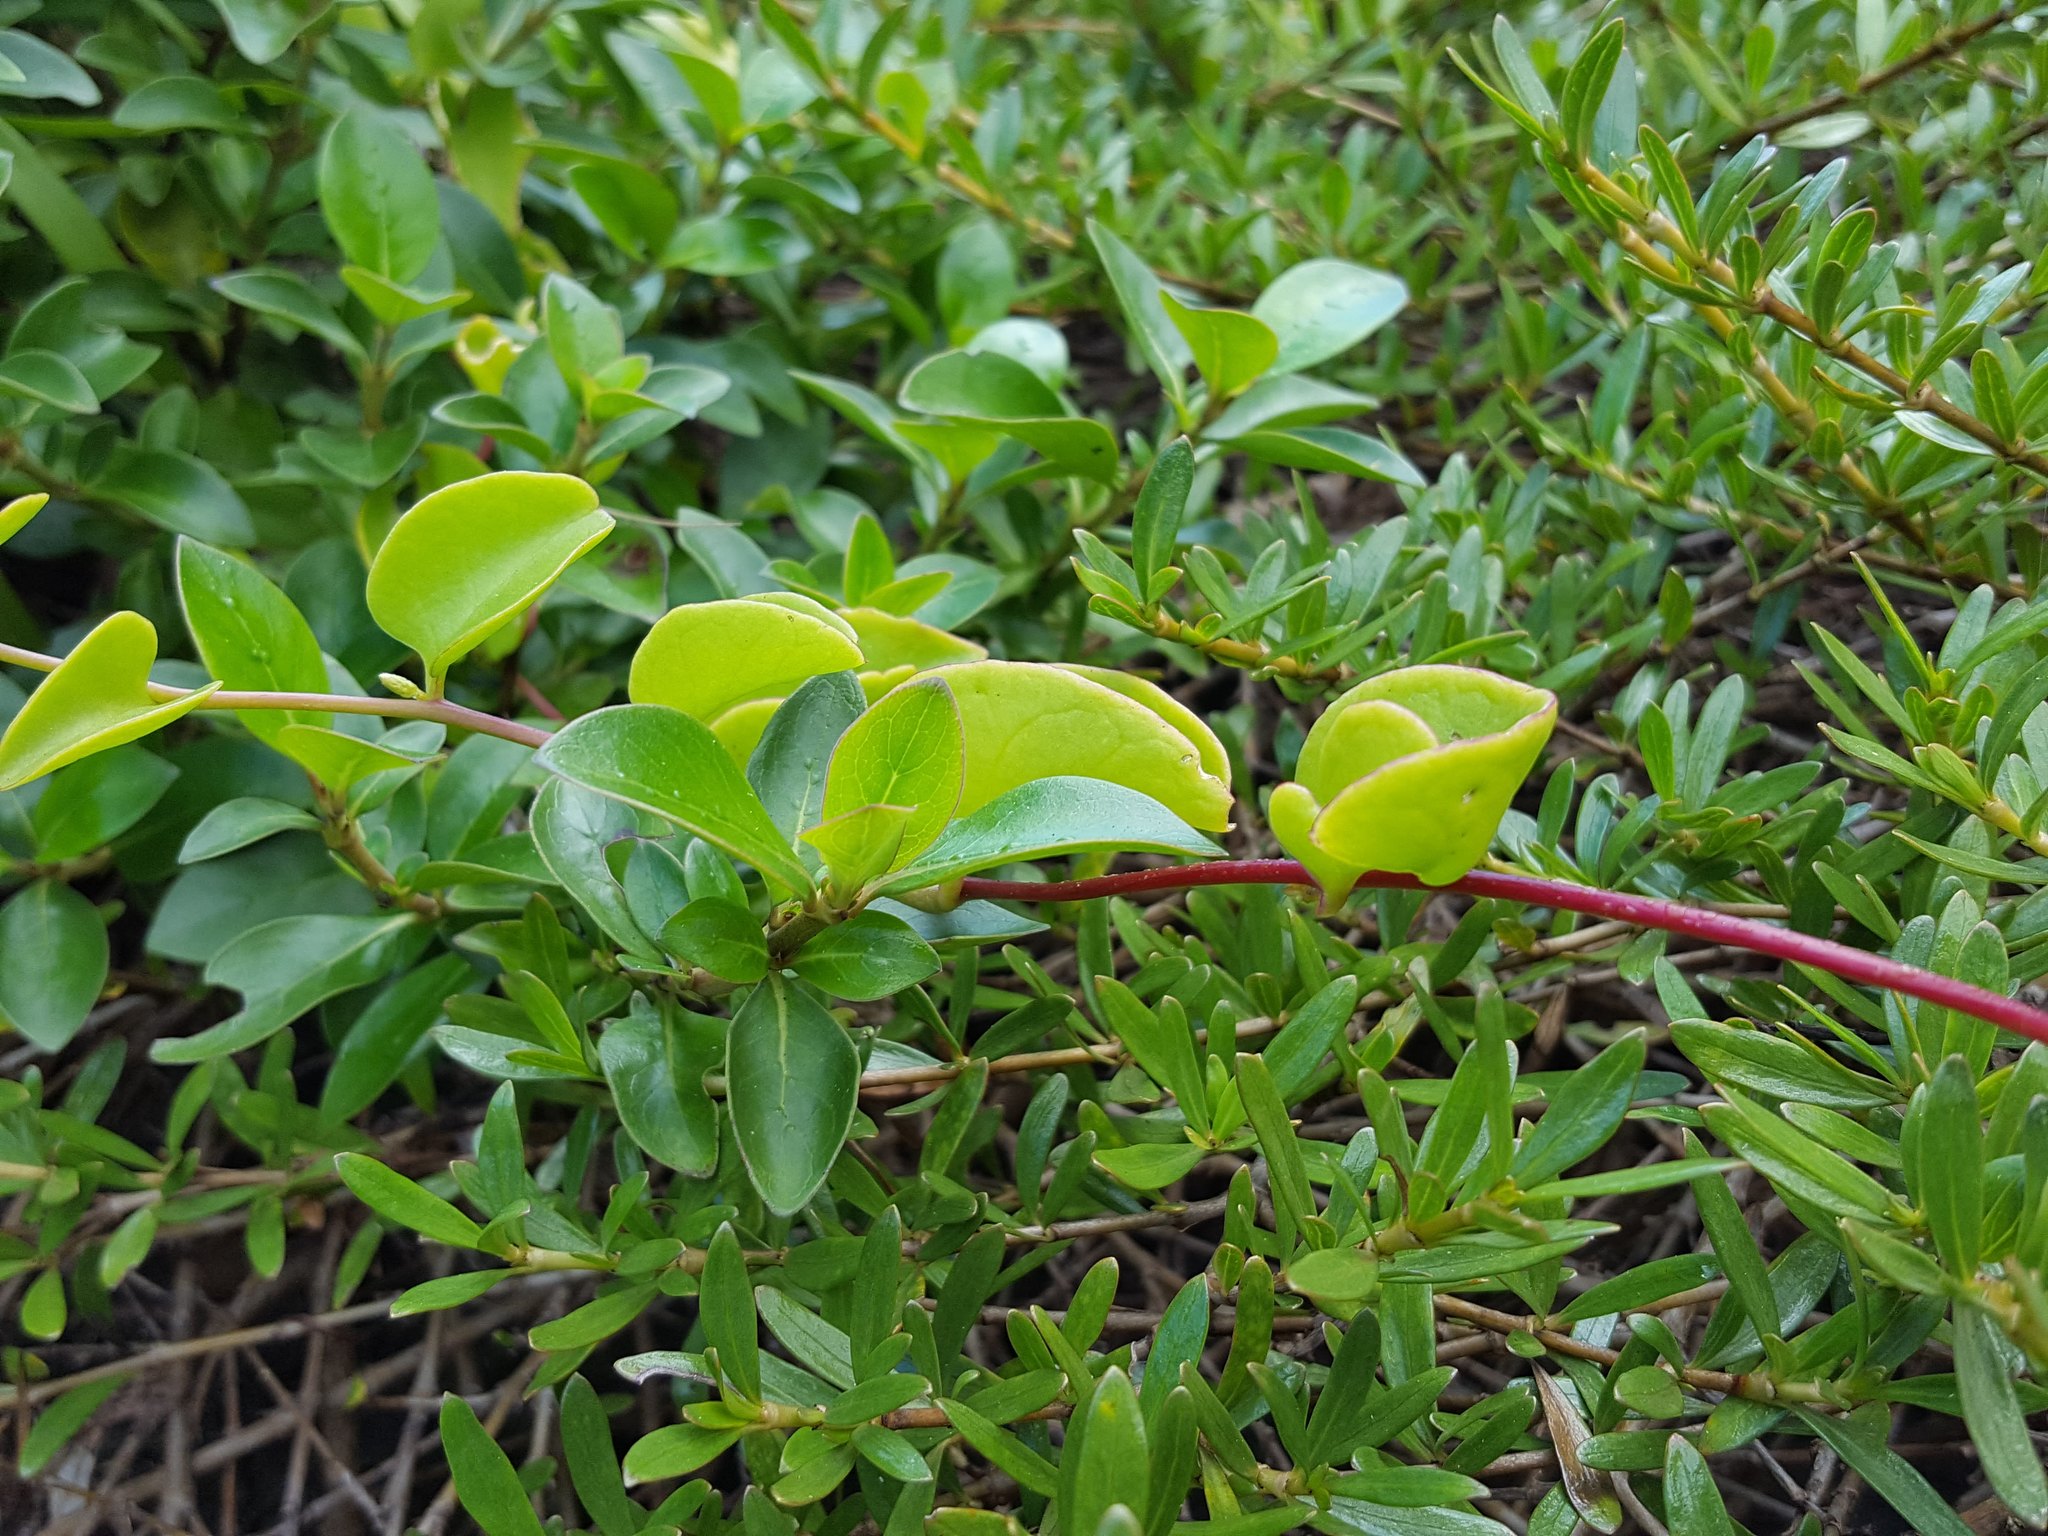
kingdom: Plantae
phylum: Tracheophyta
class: Magnoliopsida
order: Caryophyllales
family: Basellaceae
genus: Anredera
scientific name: Anredera cordifolia
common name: Heartleaf madeiravine
